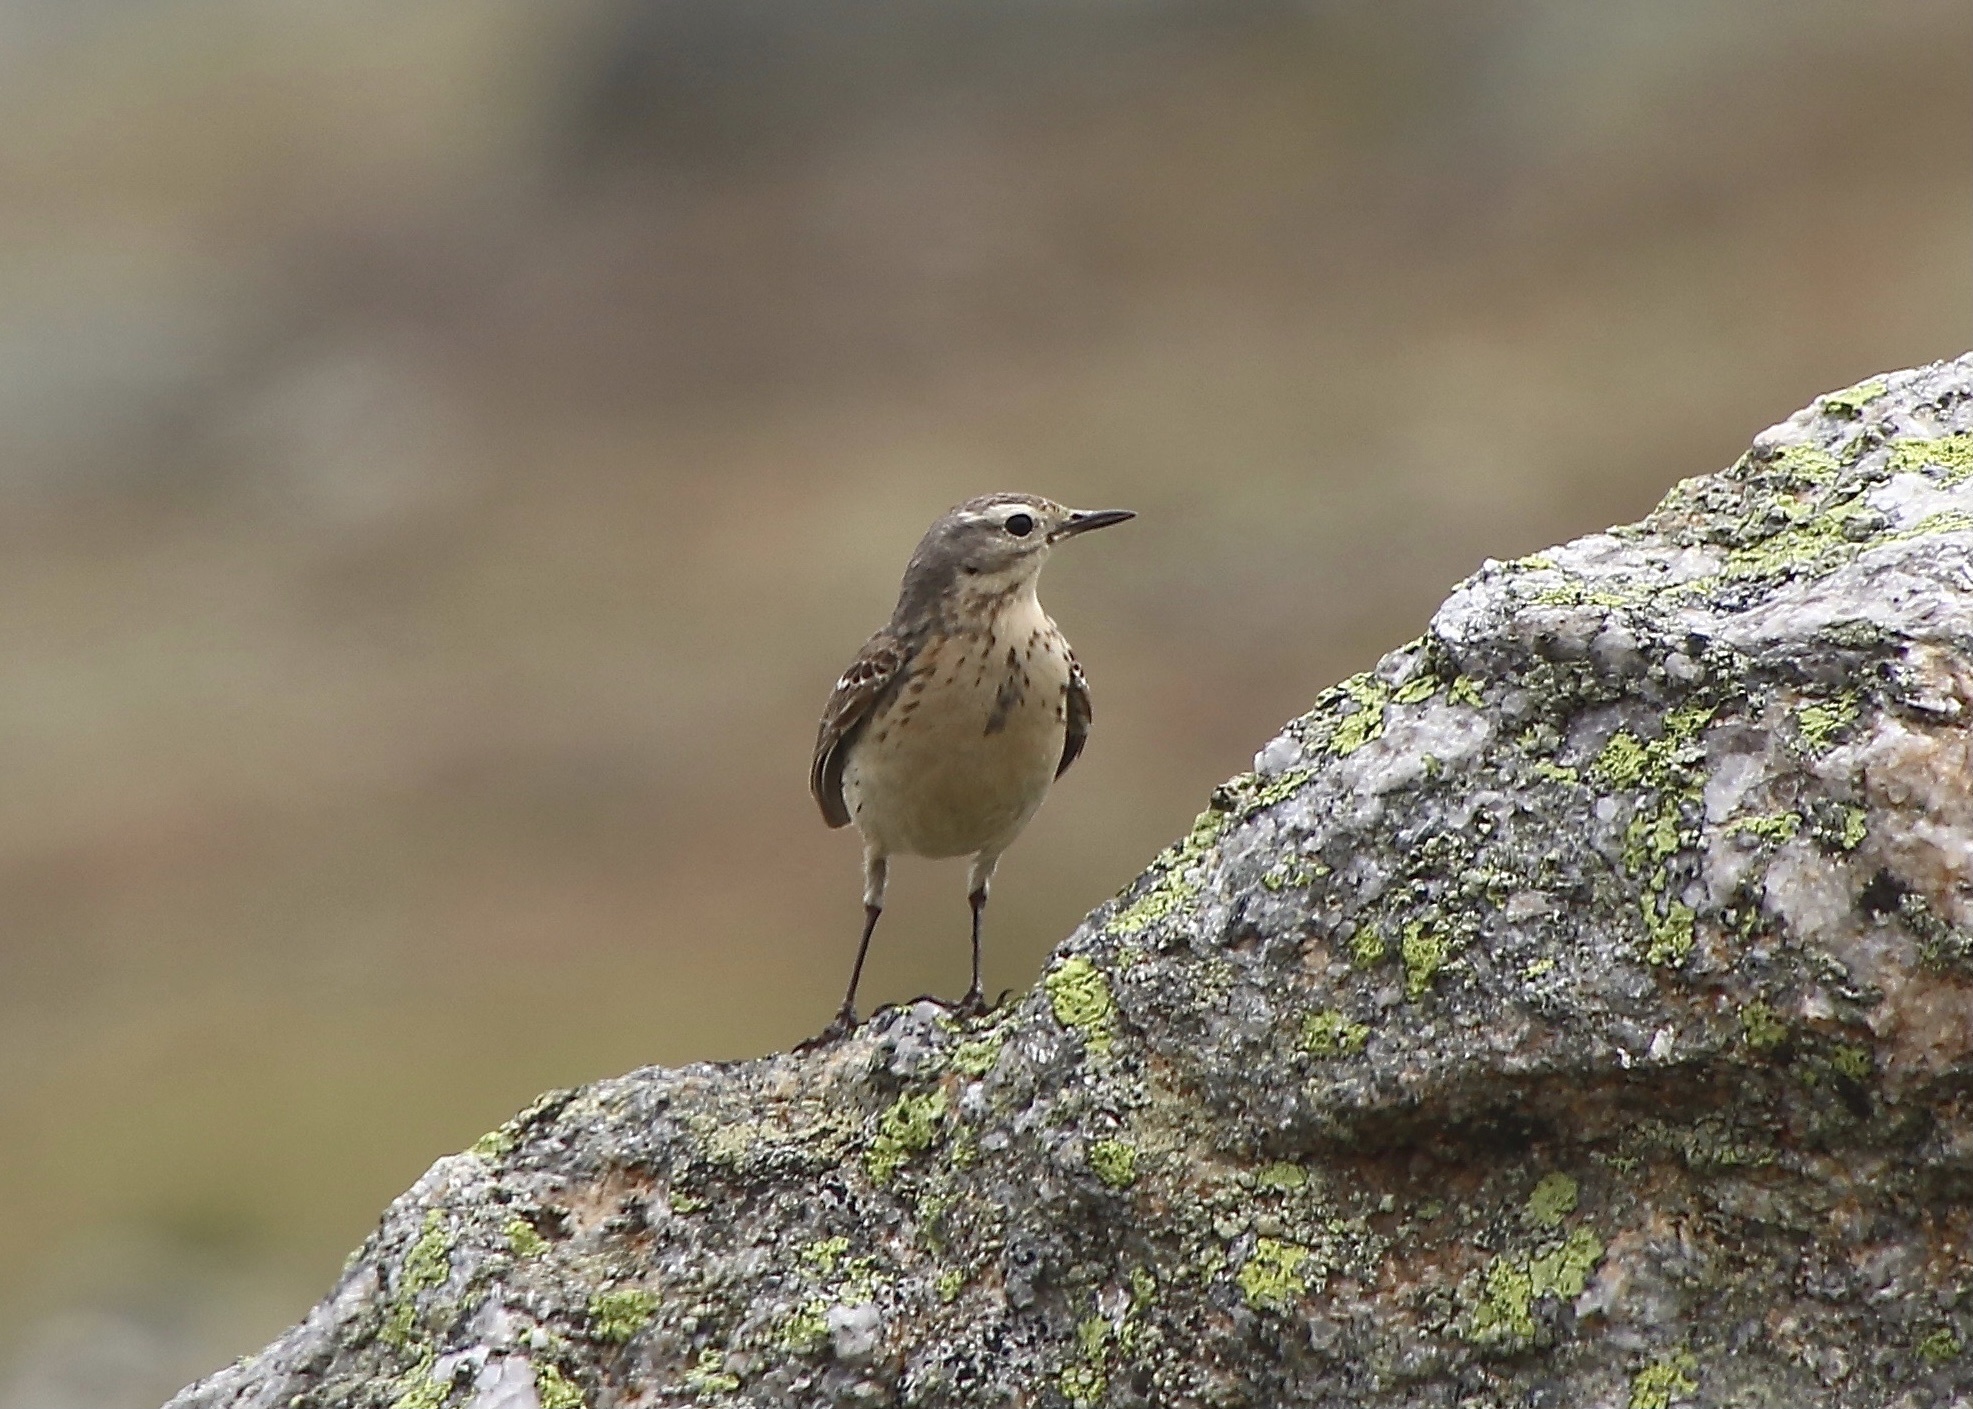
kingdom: Animalia
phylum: Chordata
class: Aves
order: Passeriformes
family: Motacillidae
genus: Anthus
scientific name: Anthus rubescens
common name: Buff-bellied pipit
